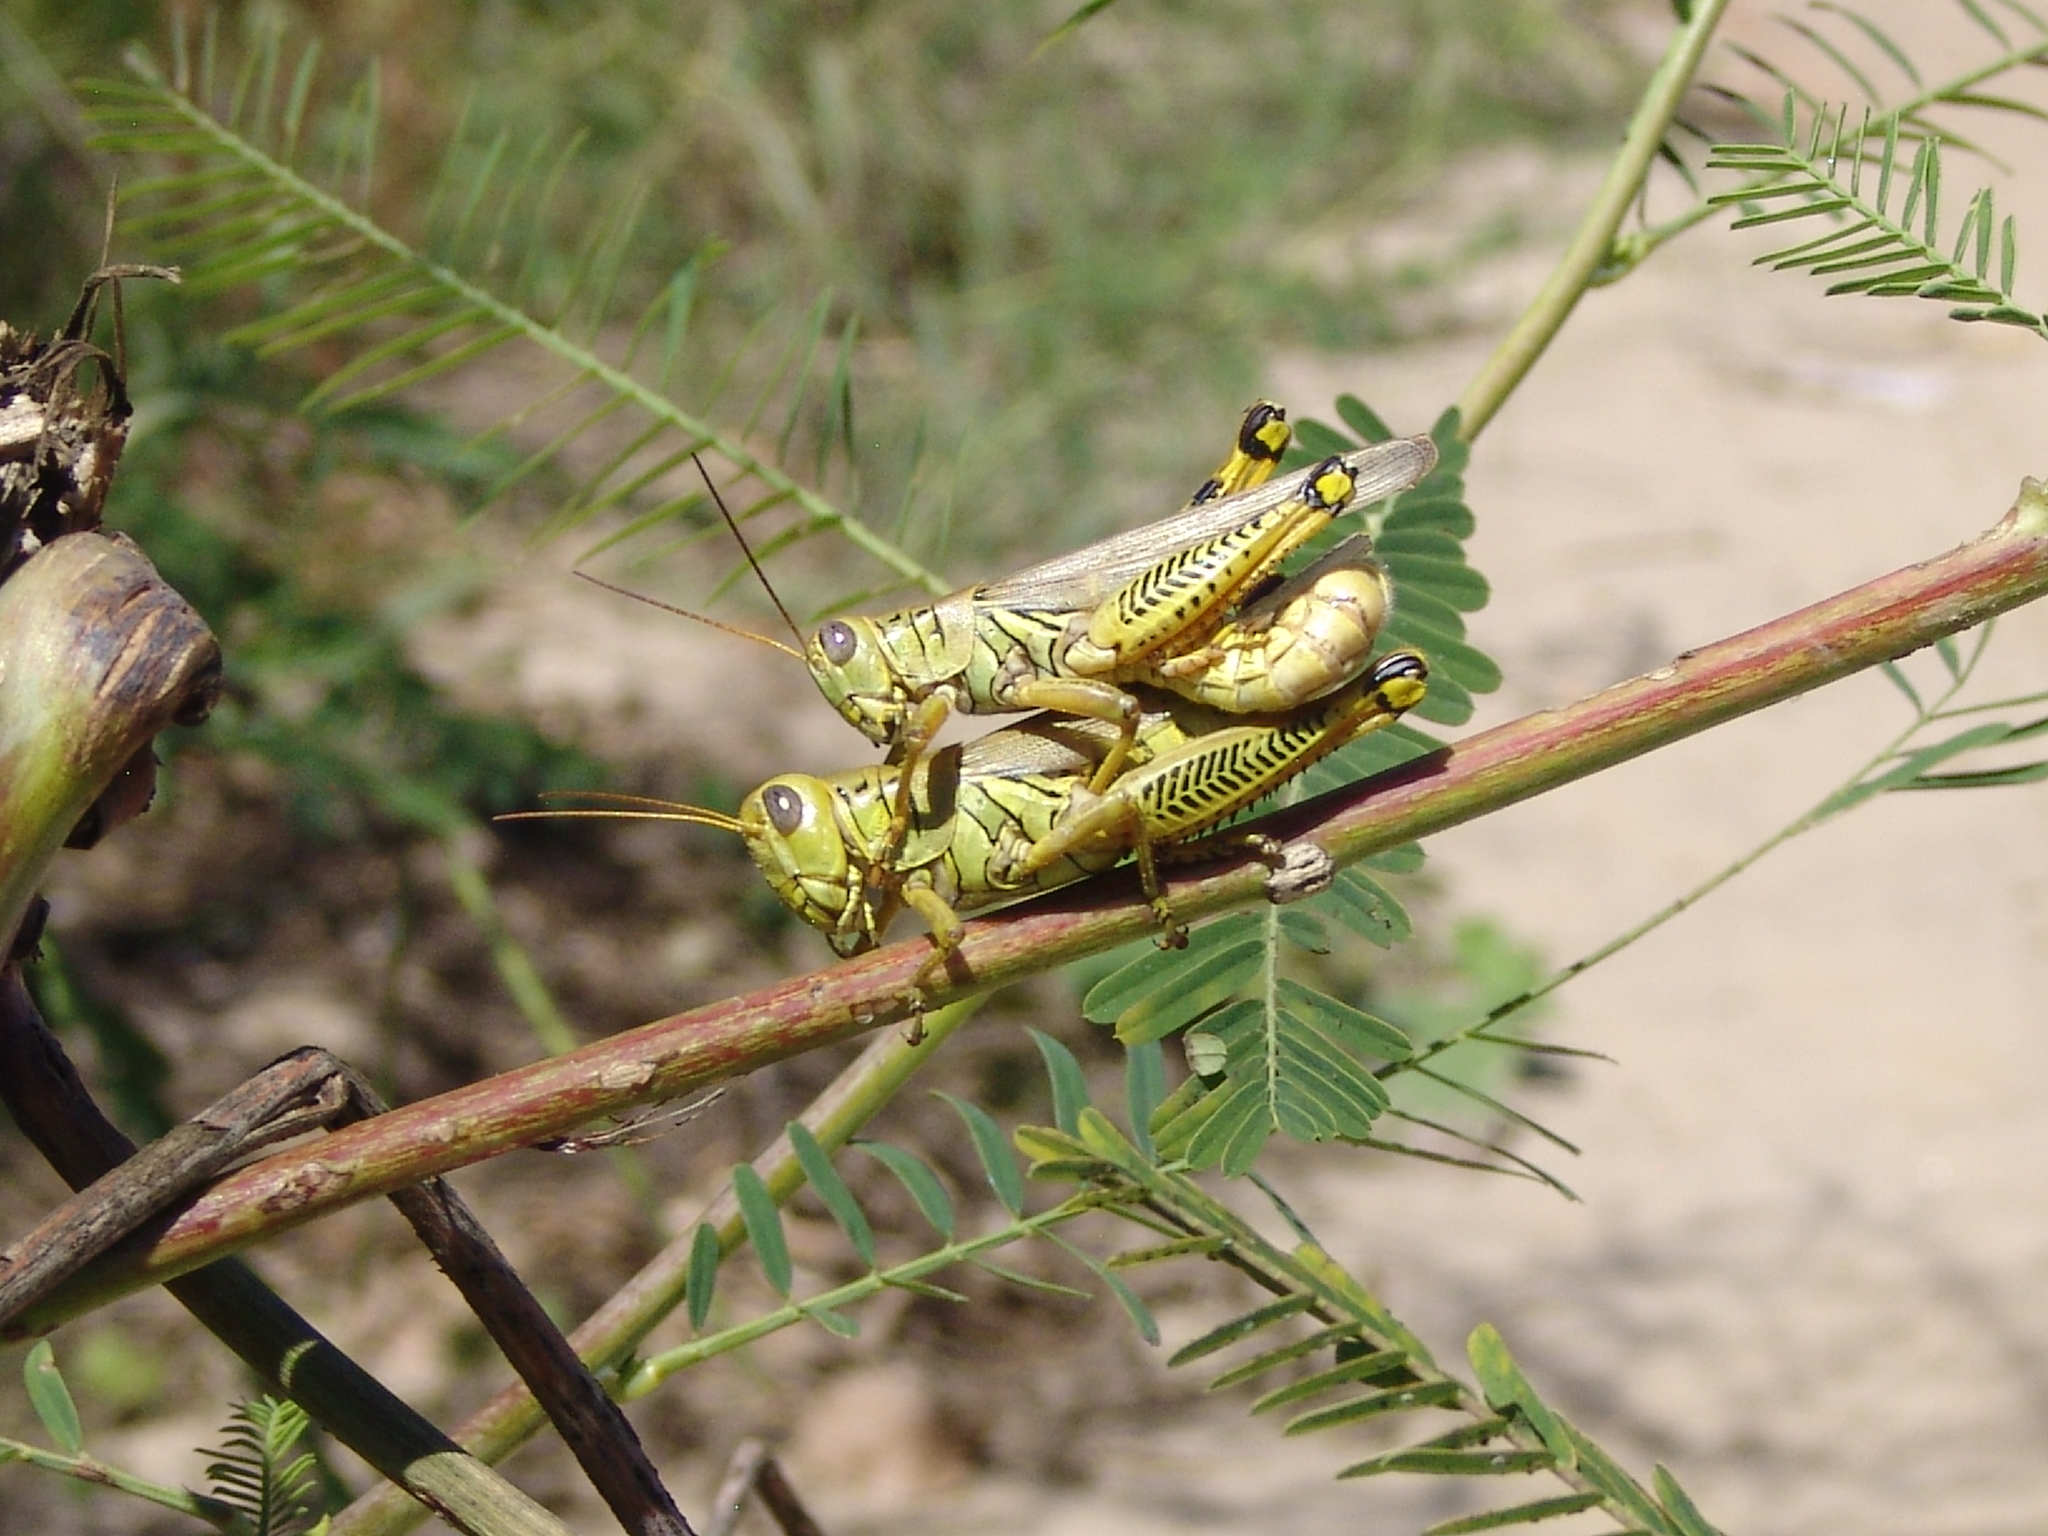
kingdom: Animalia
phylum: Arthropoda
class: Insecta
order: Orthoptera
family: Acrididae
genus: Melanoplus
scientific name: Melanoplus differentialis
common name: Differential grasshopper
